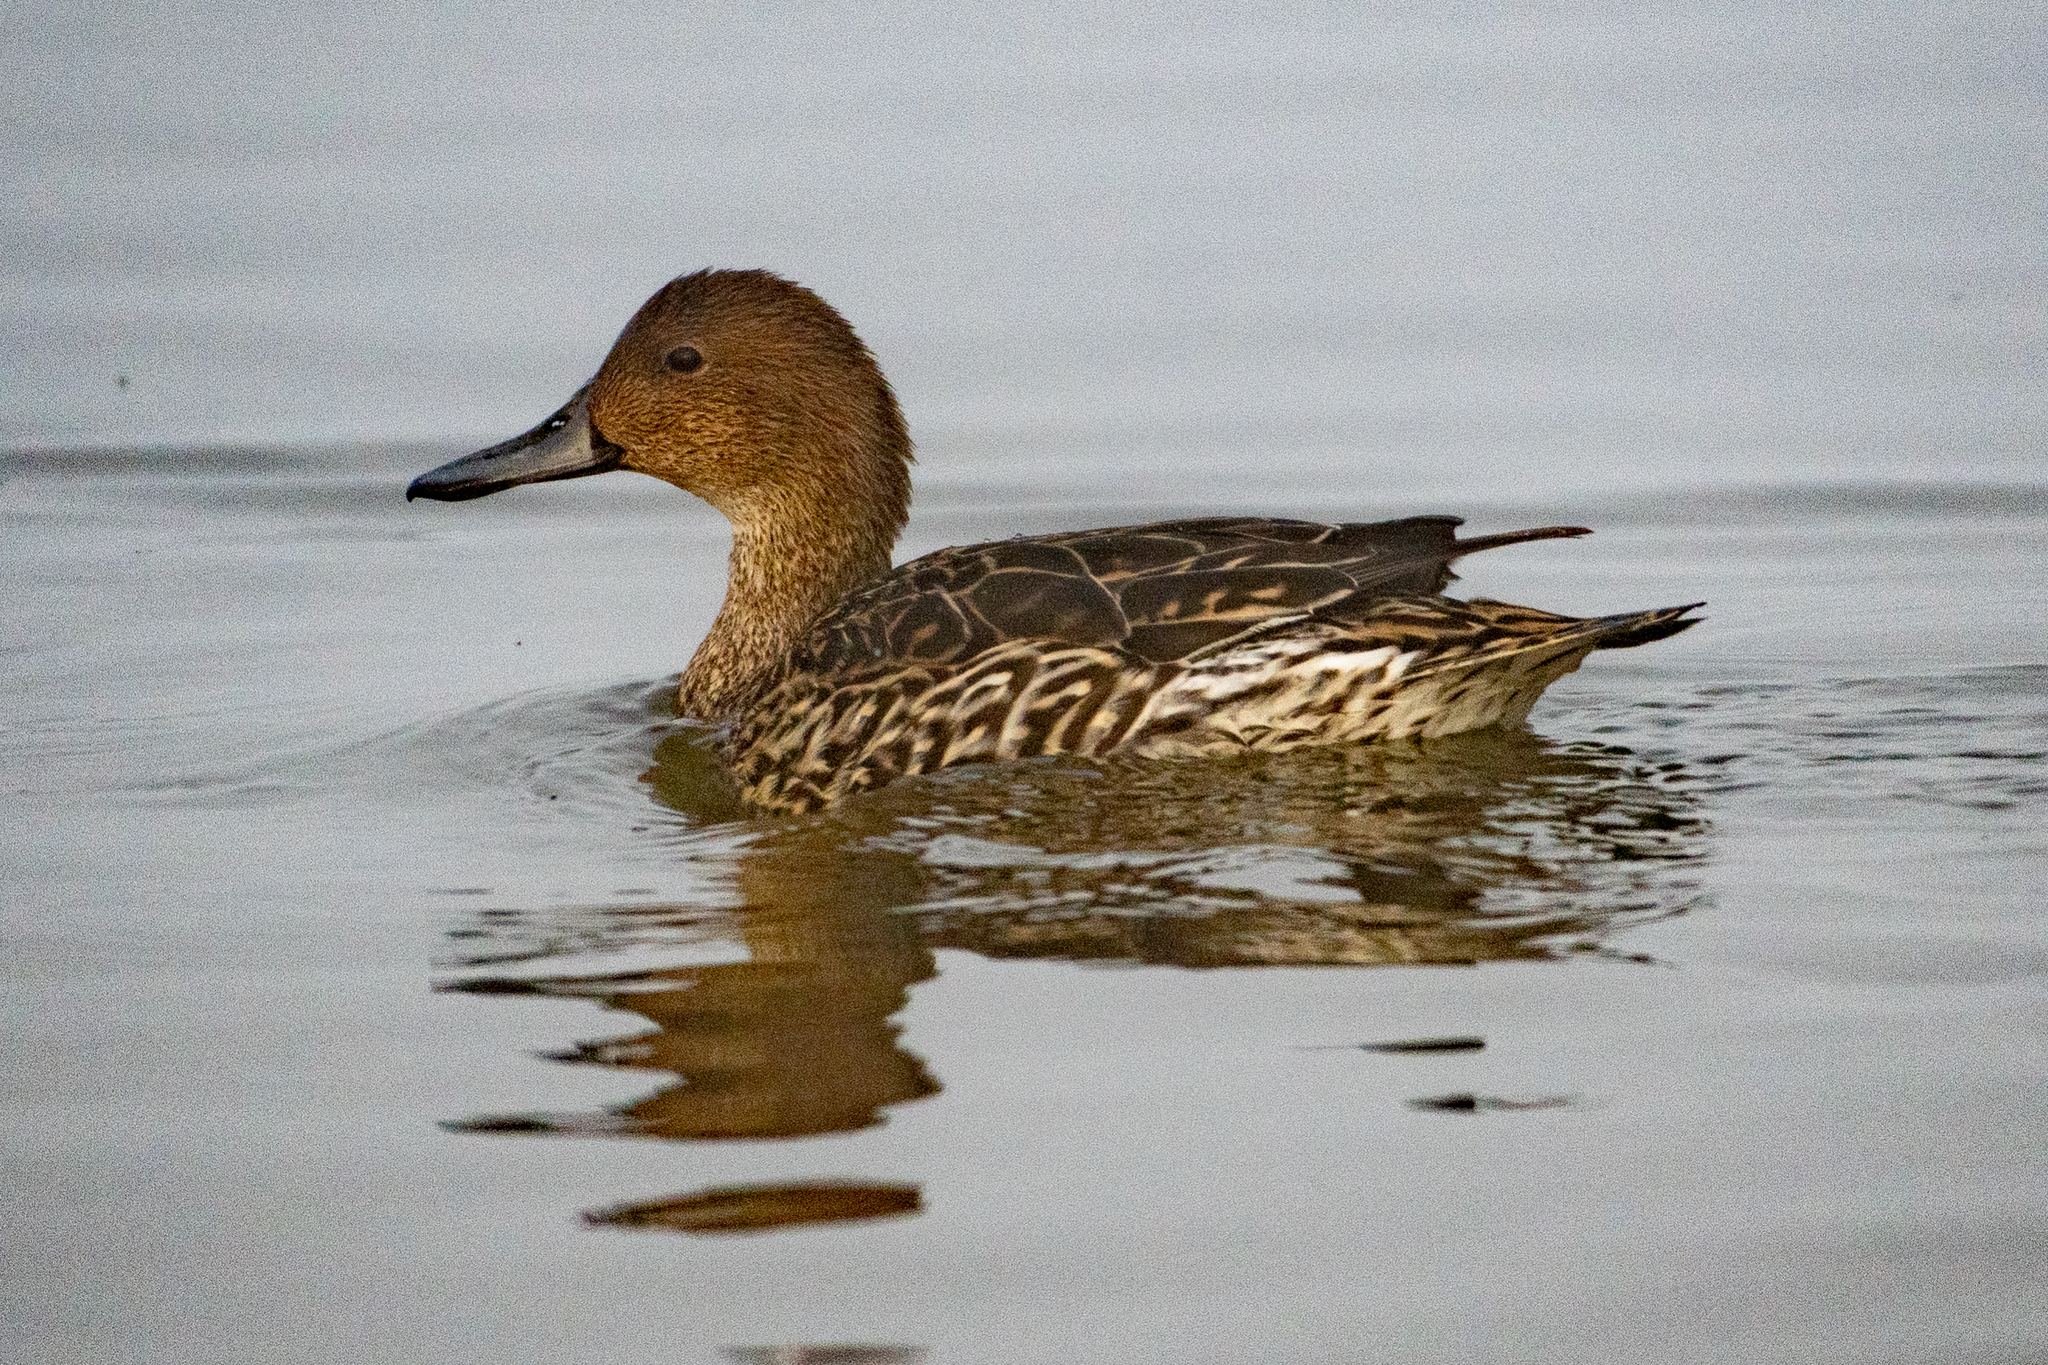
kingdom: Animalia
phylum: Chordata
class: Aves
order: Anseriformes
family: Anatidae
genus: Anas
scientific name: Anas acuta
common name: Northern pintail
